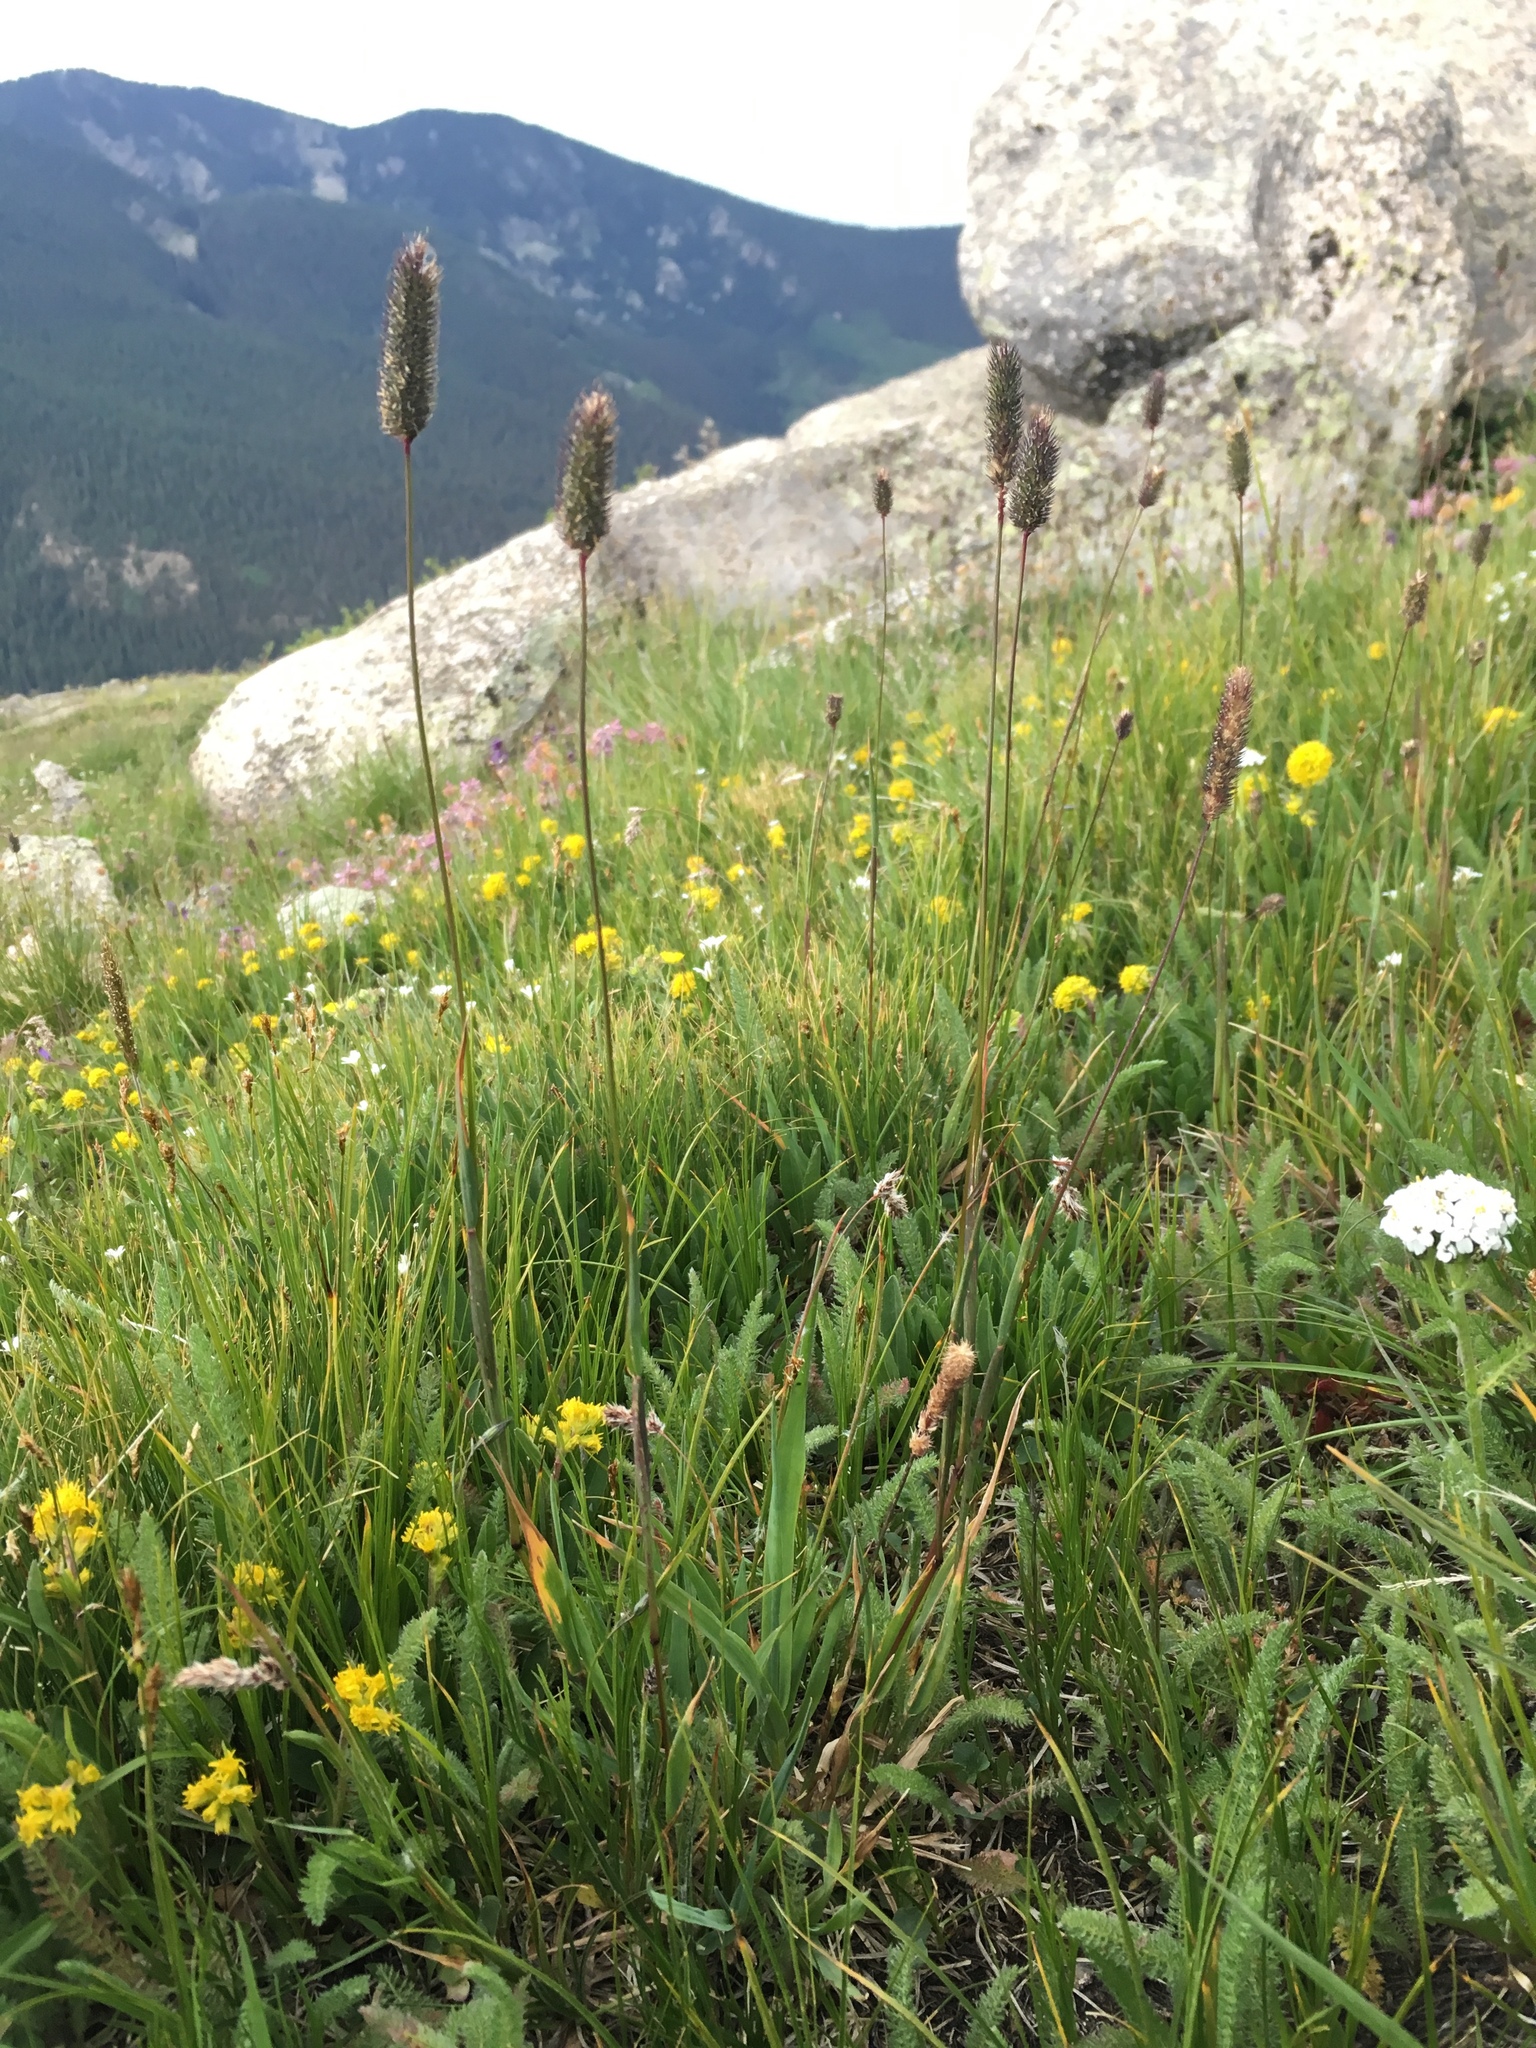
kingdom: Plantae
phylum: Tracheophyta
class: Liliopsida
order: Poales
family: Poaceae
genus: Phleum
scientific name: Phleum alpinum
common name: Alpine cat's-tail
